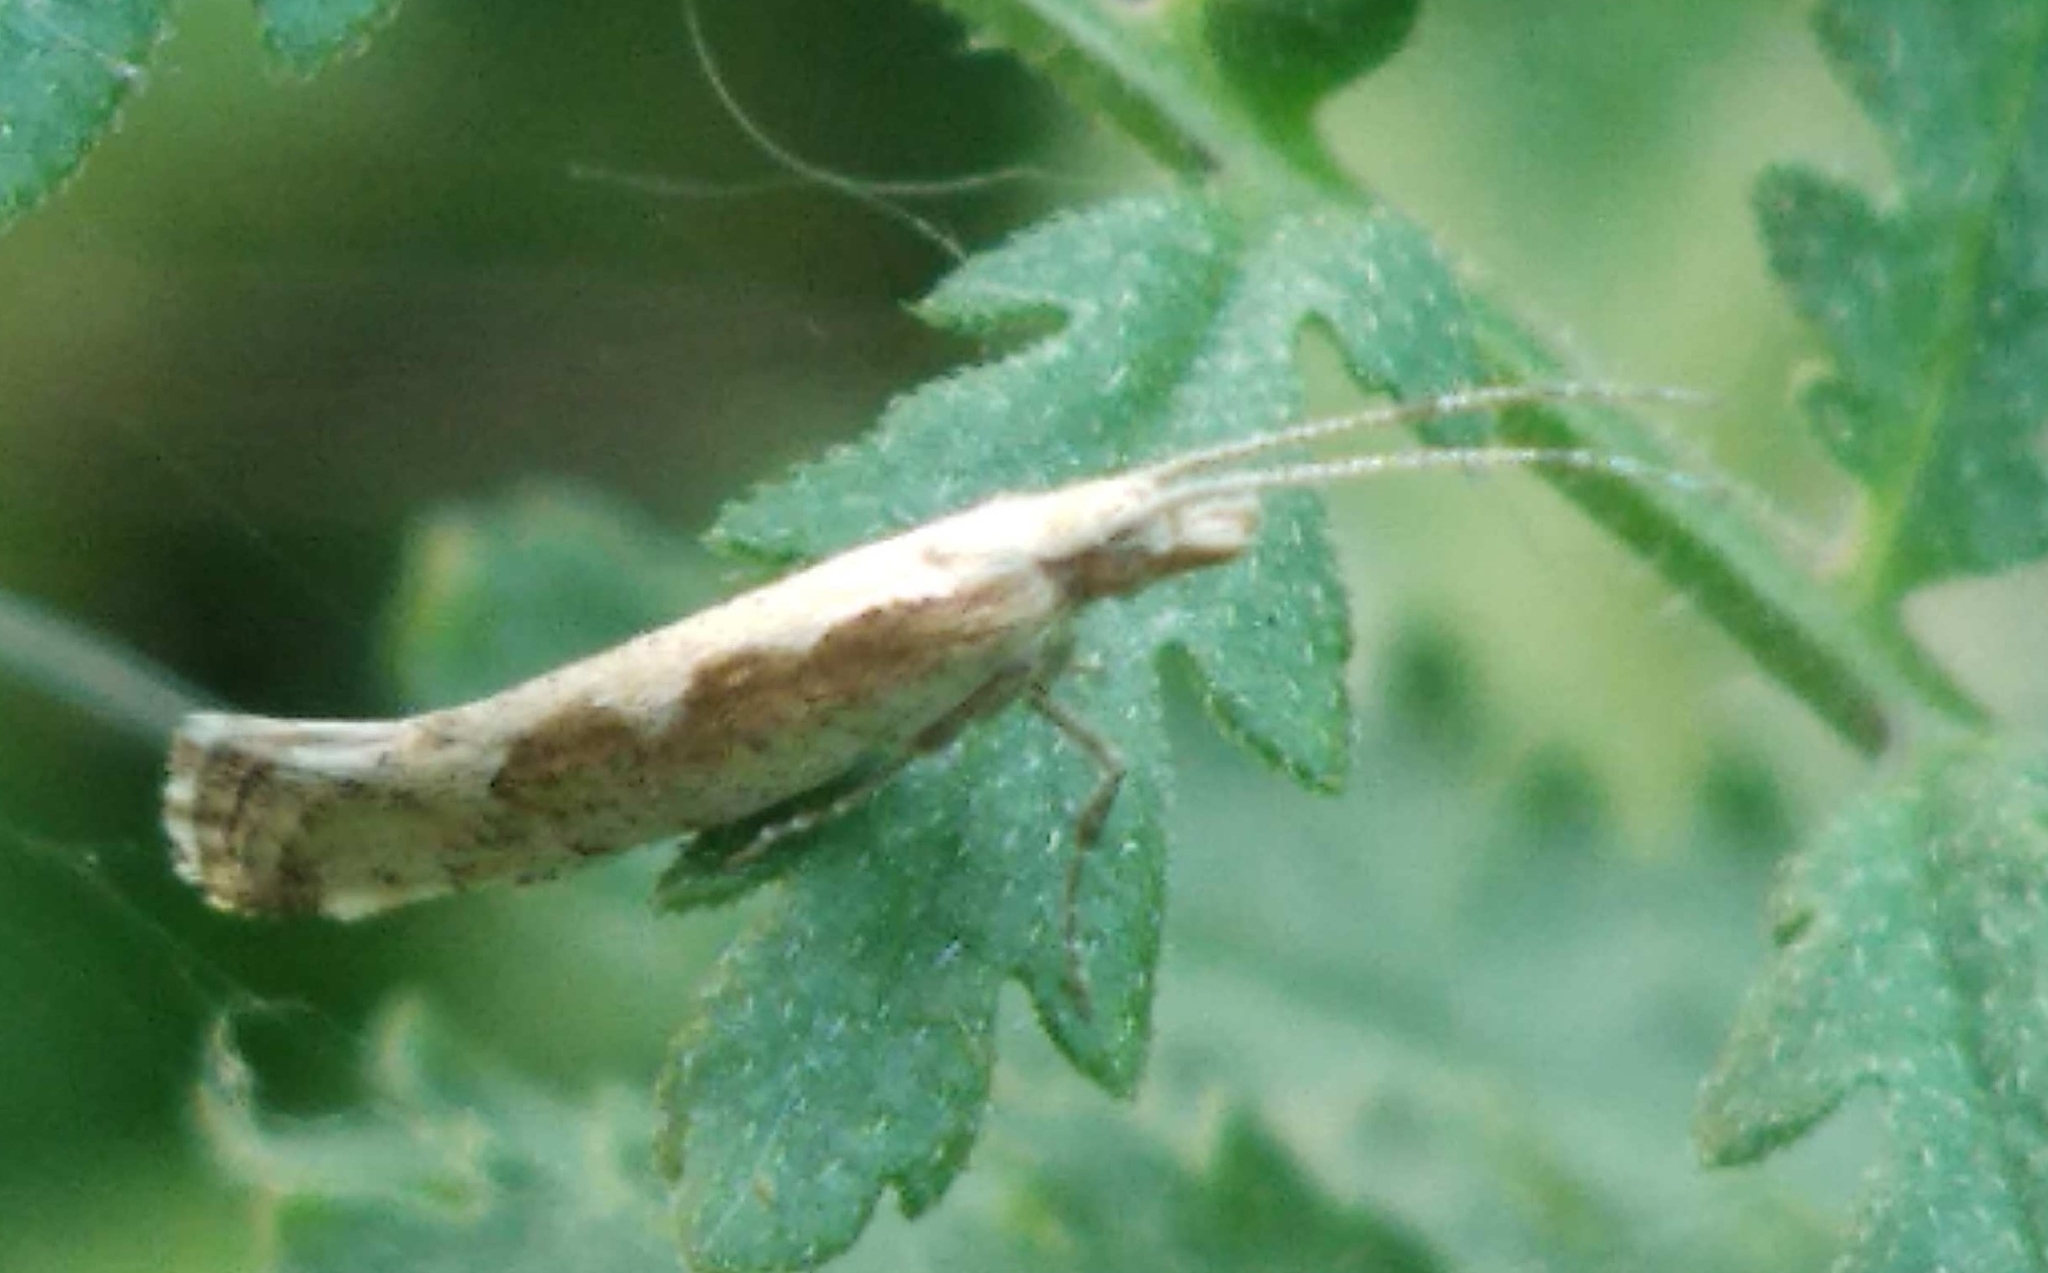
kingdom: Animalia
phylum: Arthropoda
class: Insecta
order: Lepidoptera
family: Plutellidae
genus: Plutella
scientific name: Plutella xylostella
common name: Diamond-back moth
